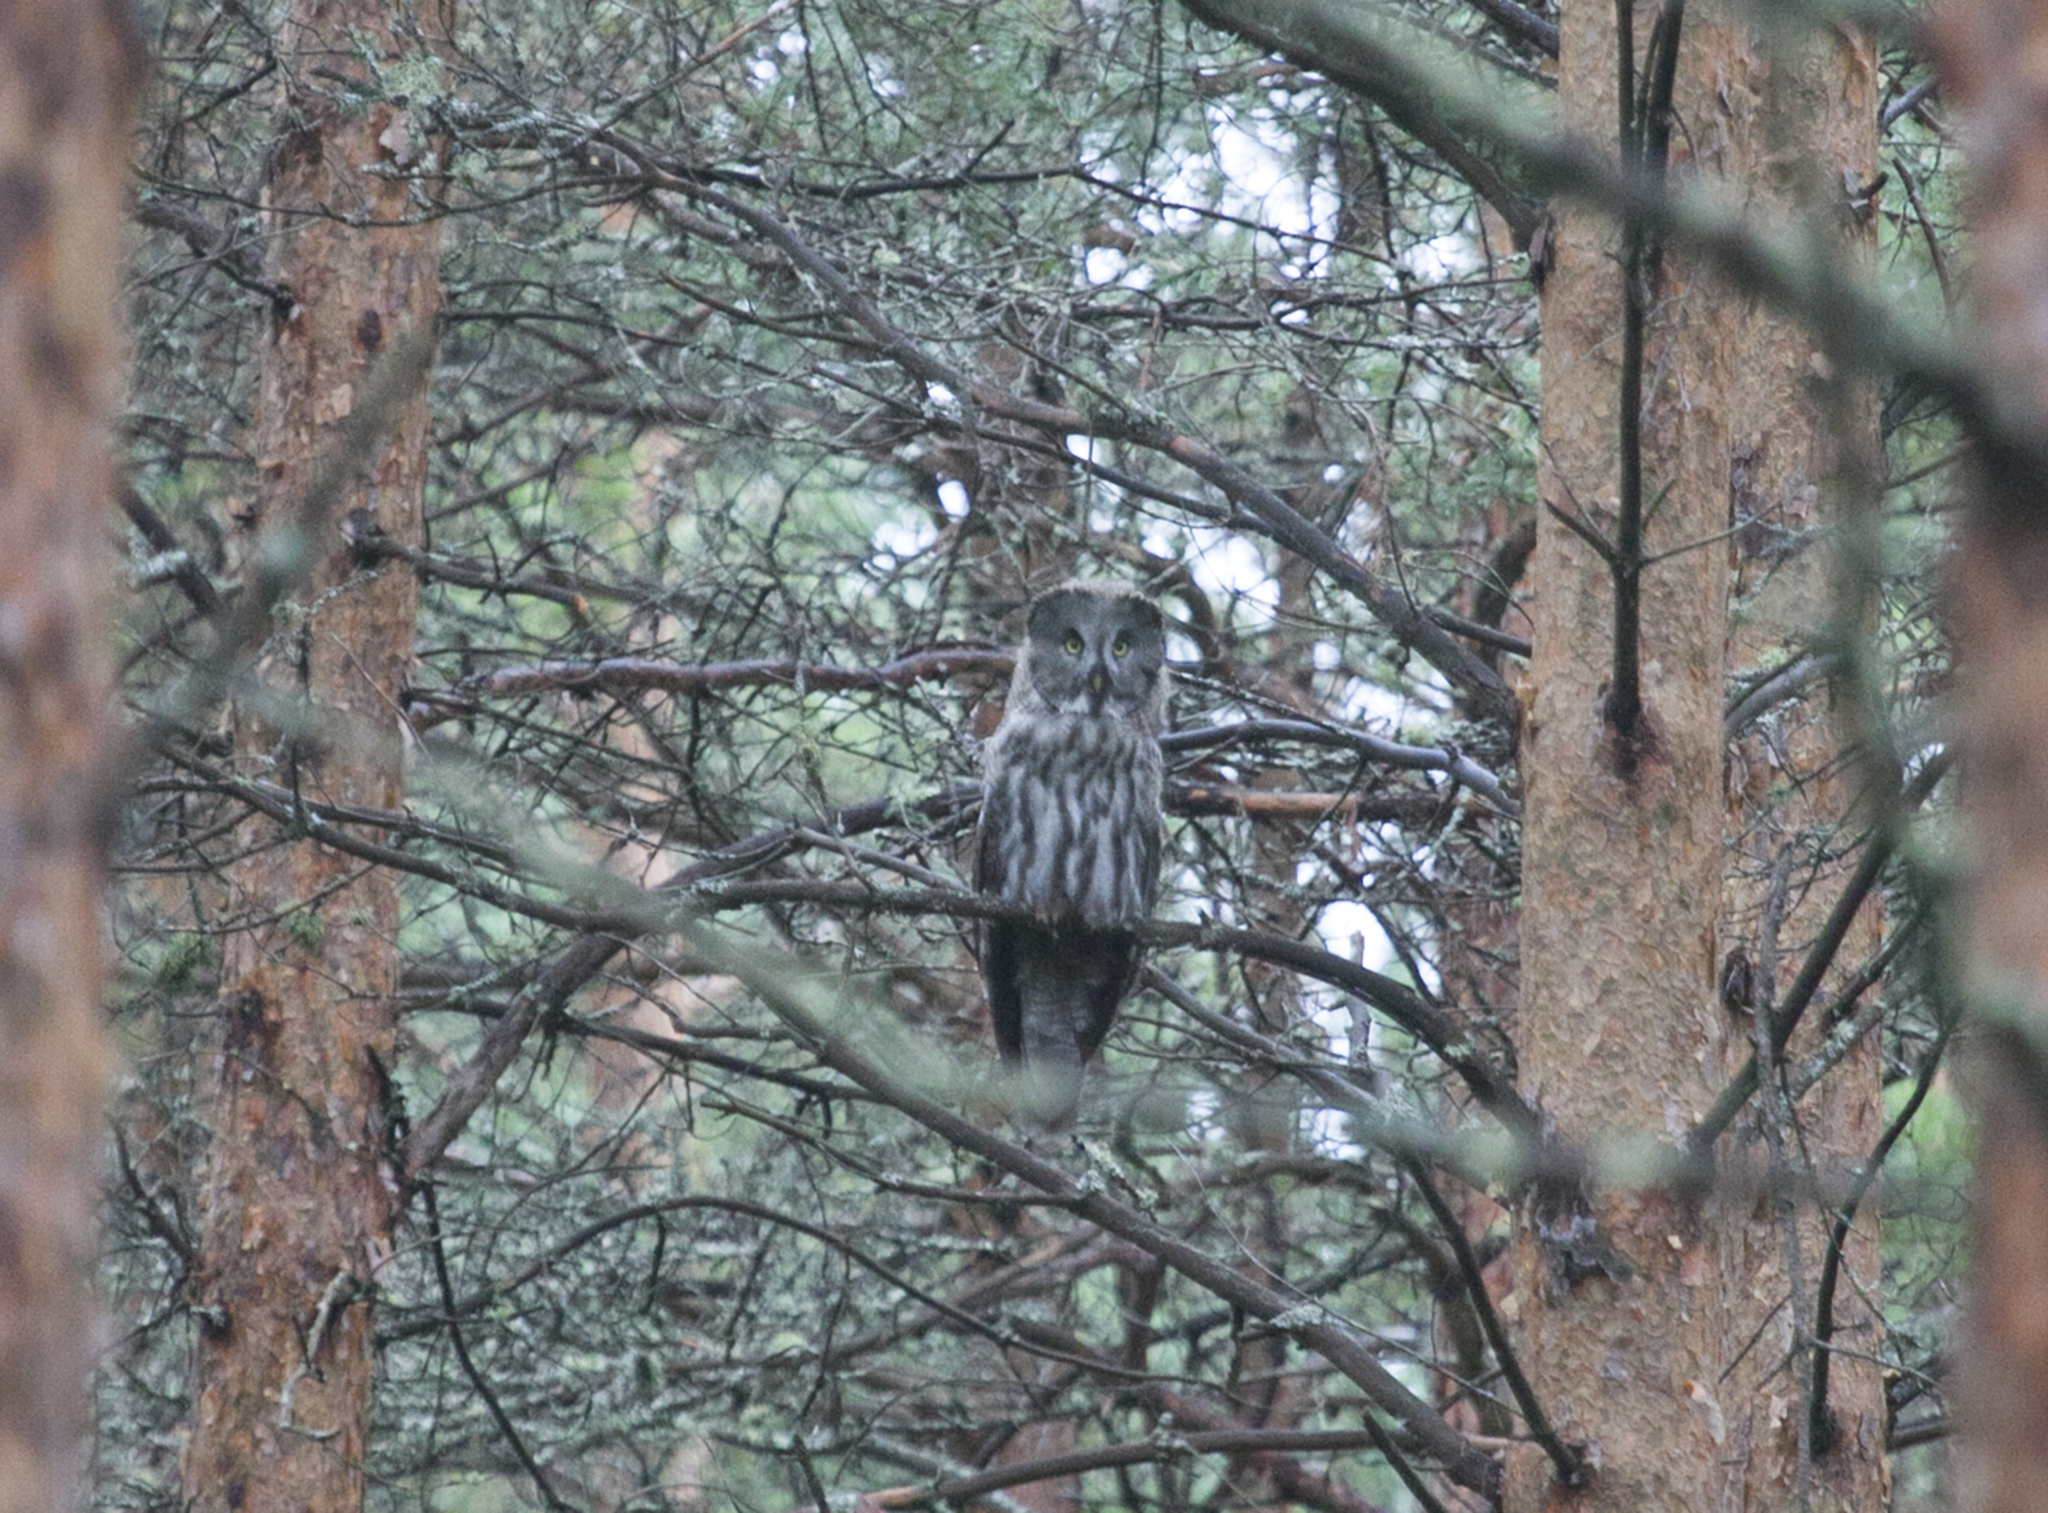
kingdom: Animalia
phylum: Chordata
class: Aves
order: Strigiformes
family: Strigidae
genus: Strix
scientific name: Strix nebulosa
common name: Great grey owl
